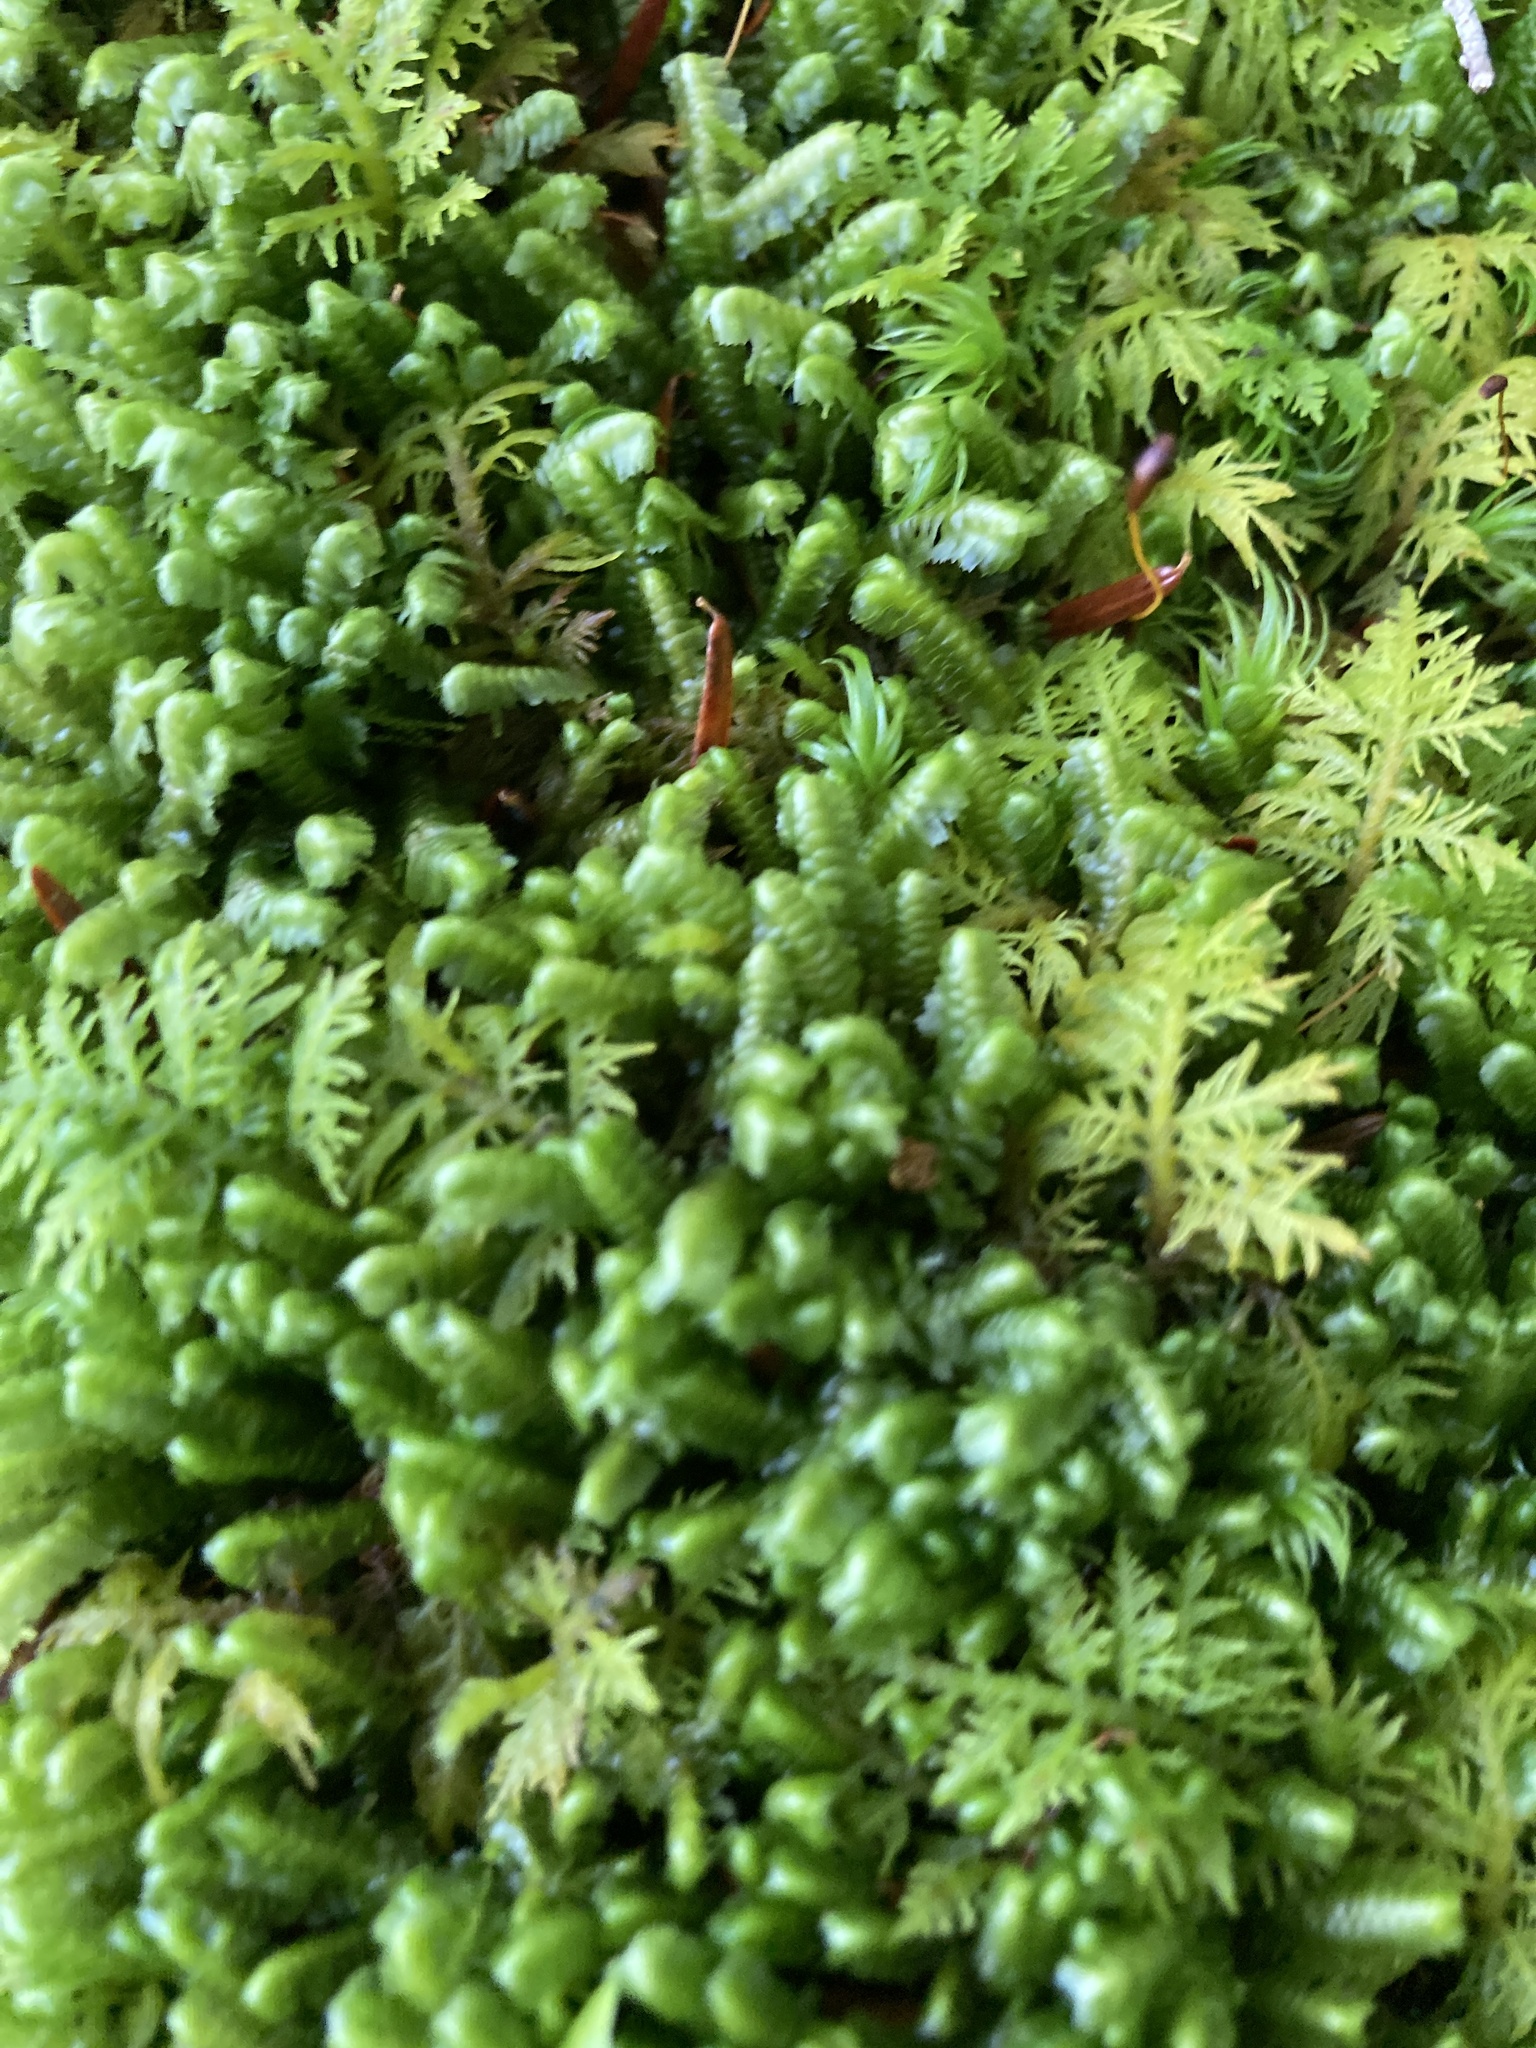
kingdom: Plantae
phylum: Marchantiophyta
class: Jungermanniopsida
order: Jungermanniales
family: Lepidoziaceae
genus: Bazzania
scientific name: Bazzania trilobata
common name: Three-lobed whipwort
